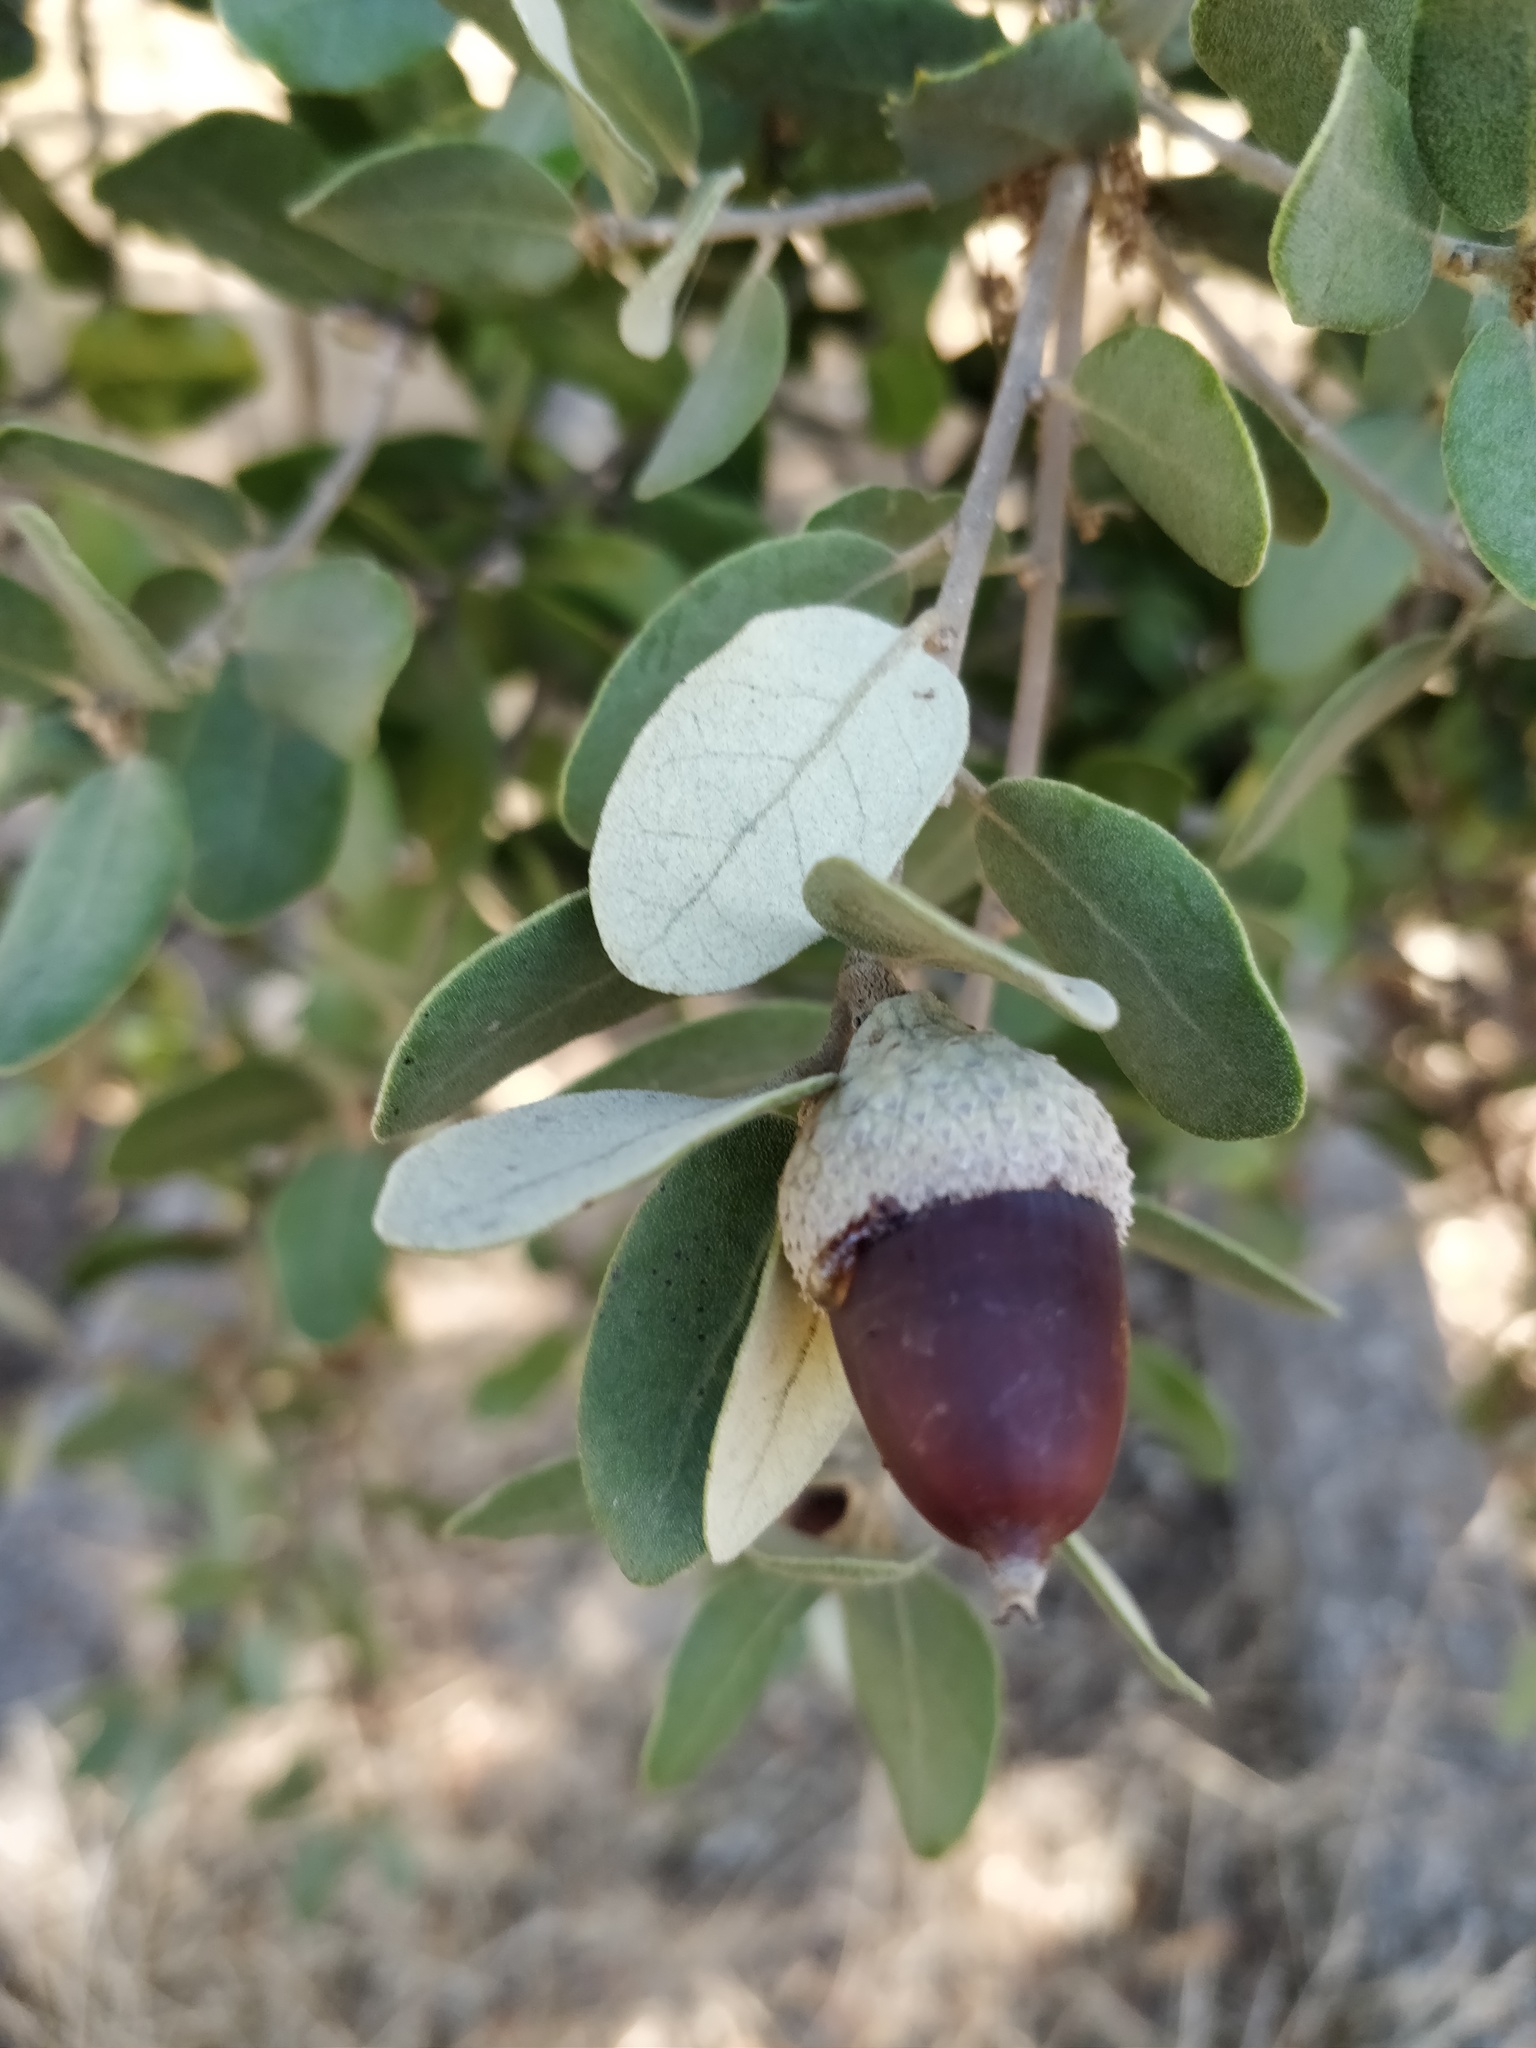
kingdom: Plantae
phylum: Tracheophyta
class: Magnoliopsida
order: Fagales
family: Fagaceae
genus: Quercus
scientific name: Quercus rotundifolia
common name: Holm oak
